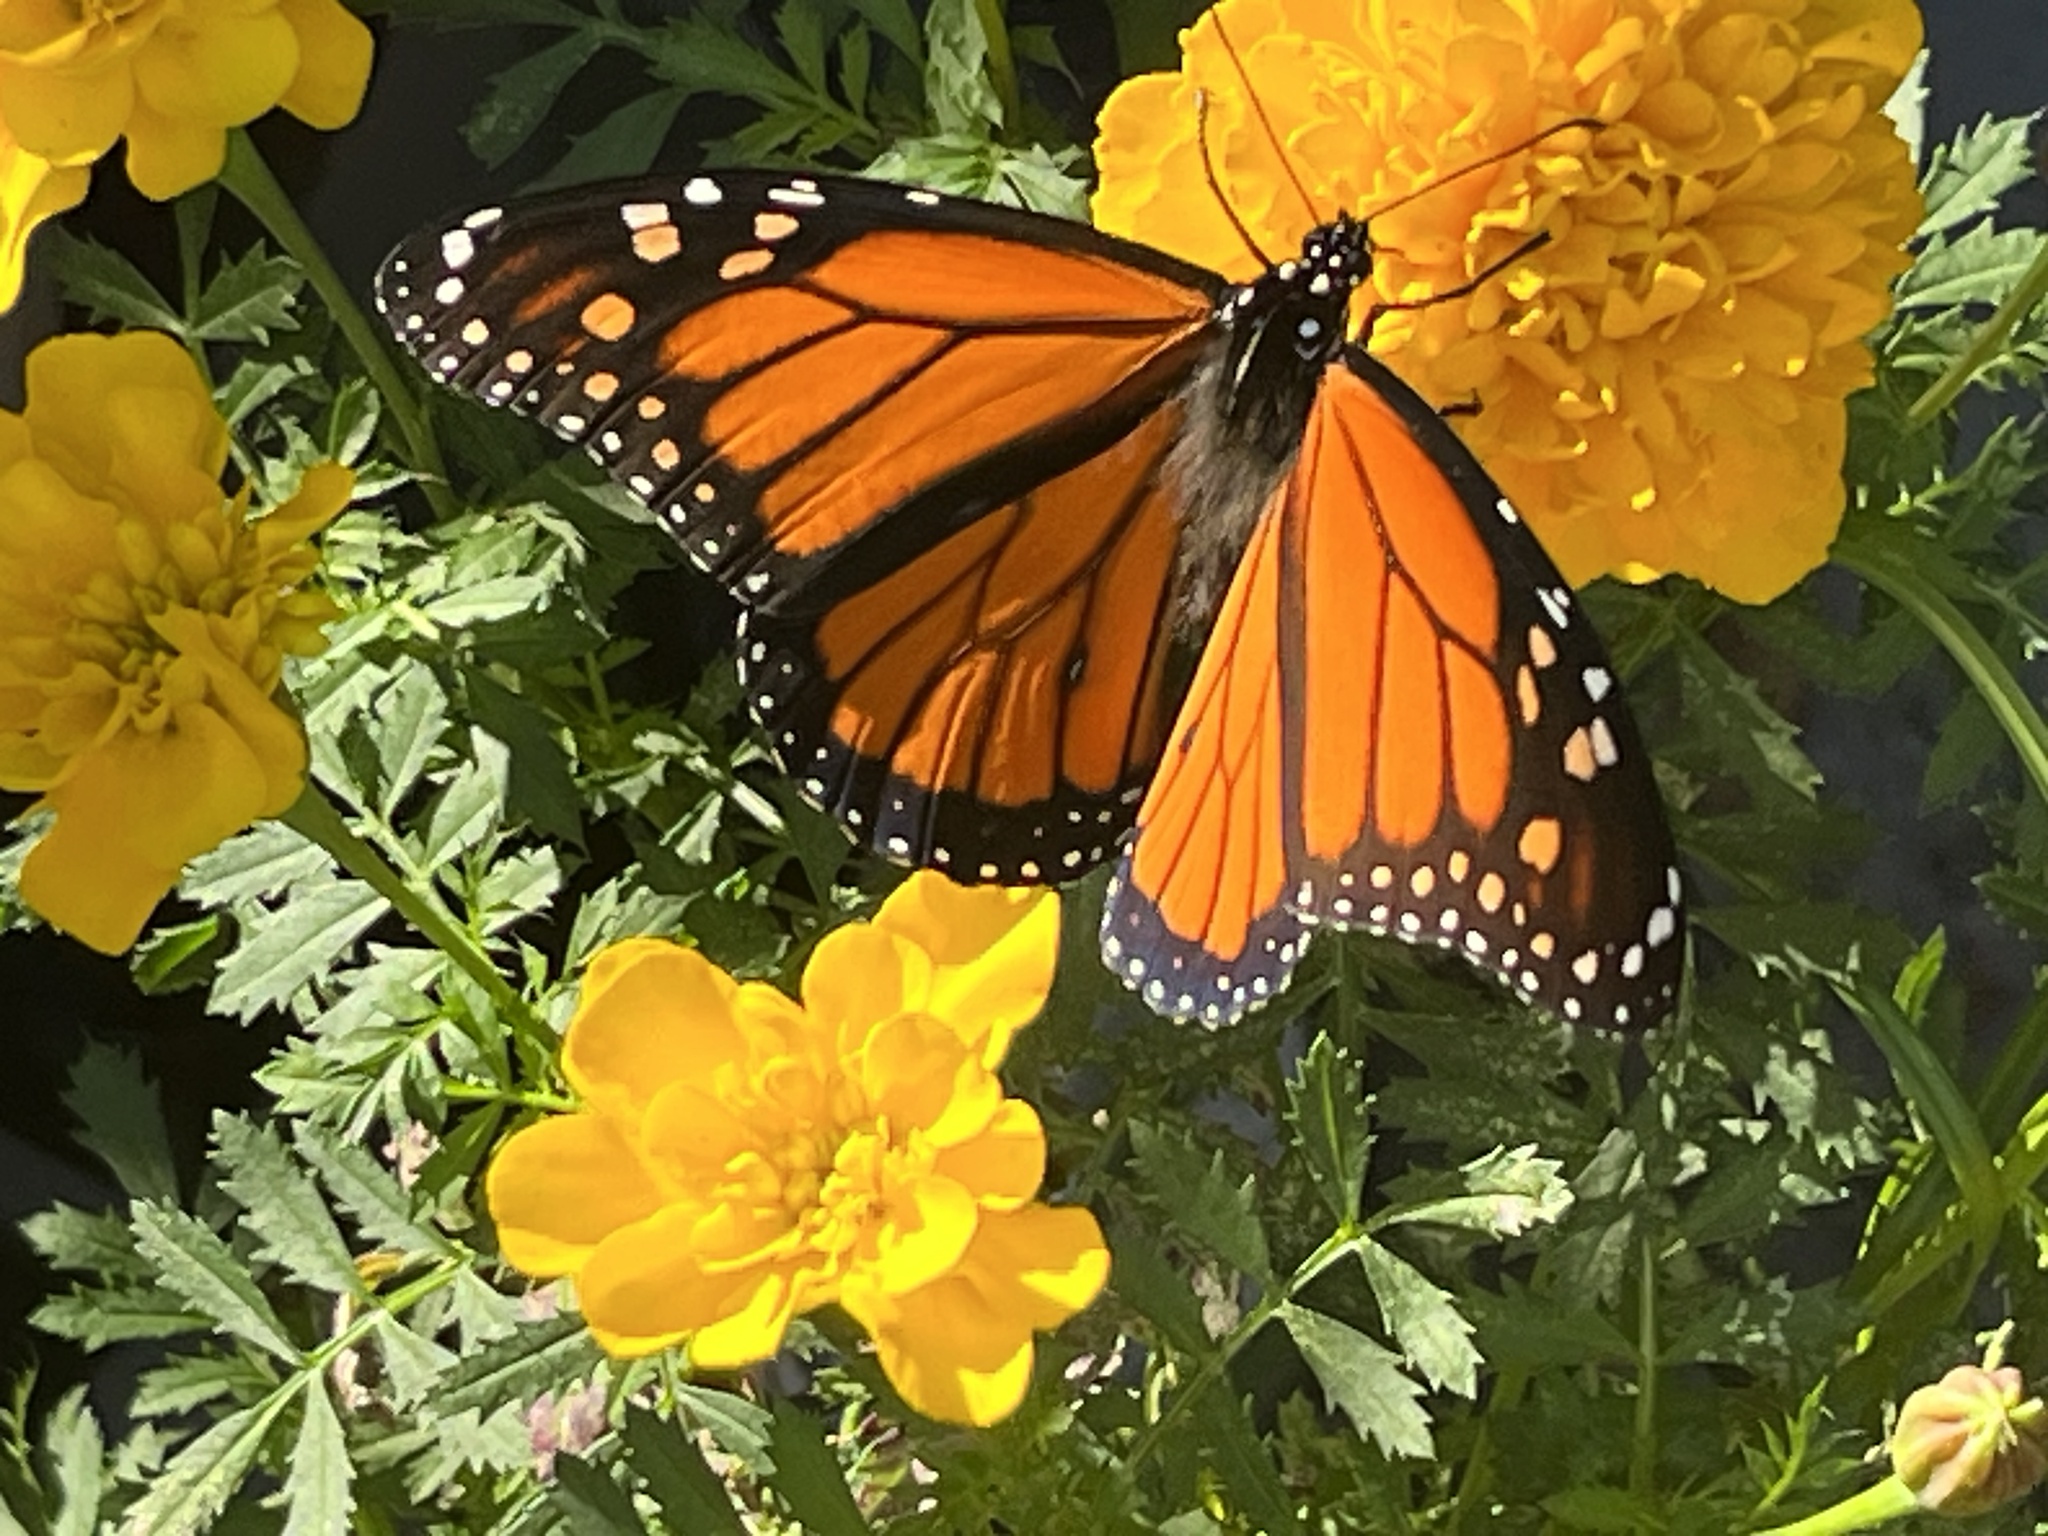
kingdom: Animalia
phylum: Arthropoda
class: Insecta
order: Lepidoptera
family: Nymphalidae
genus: Danaus
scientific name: Danaus plexippus
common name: Monarch
